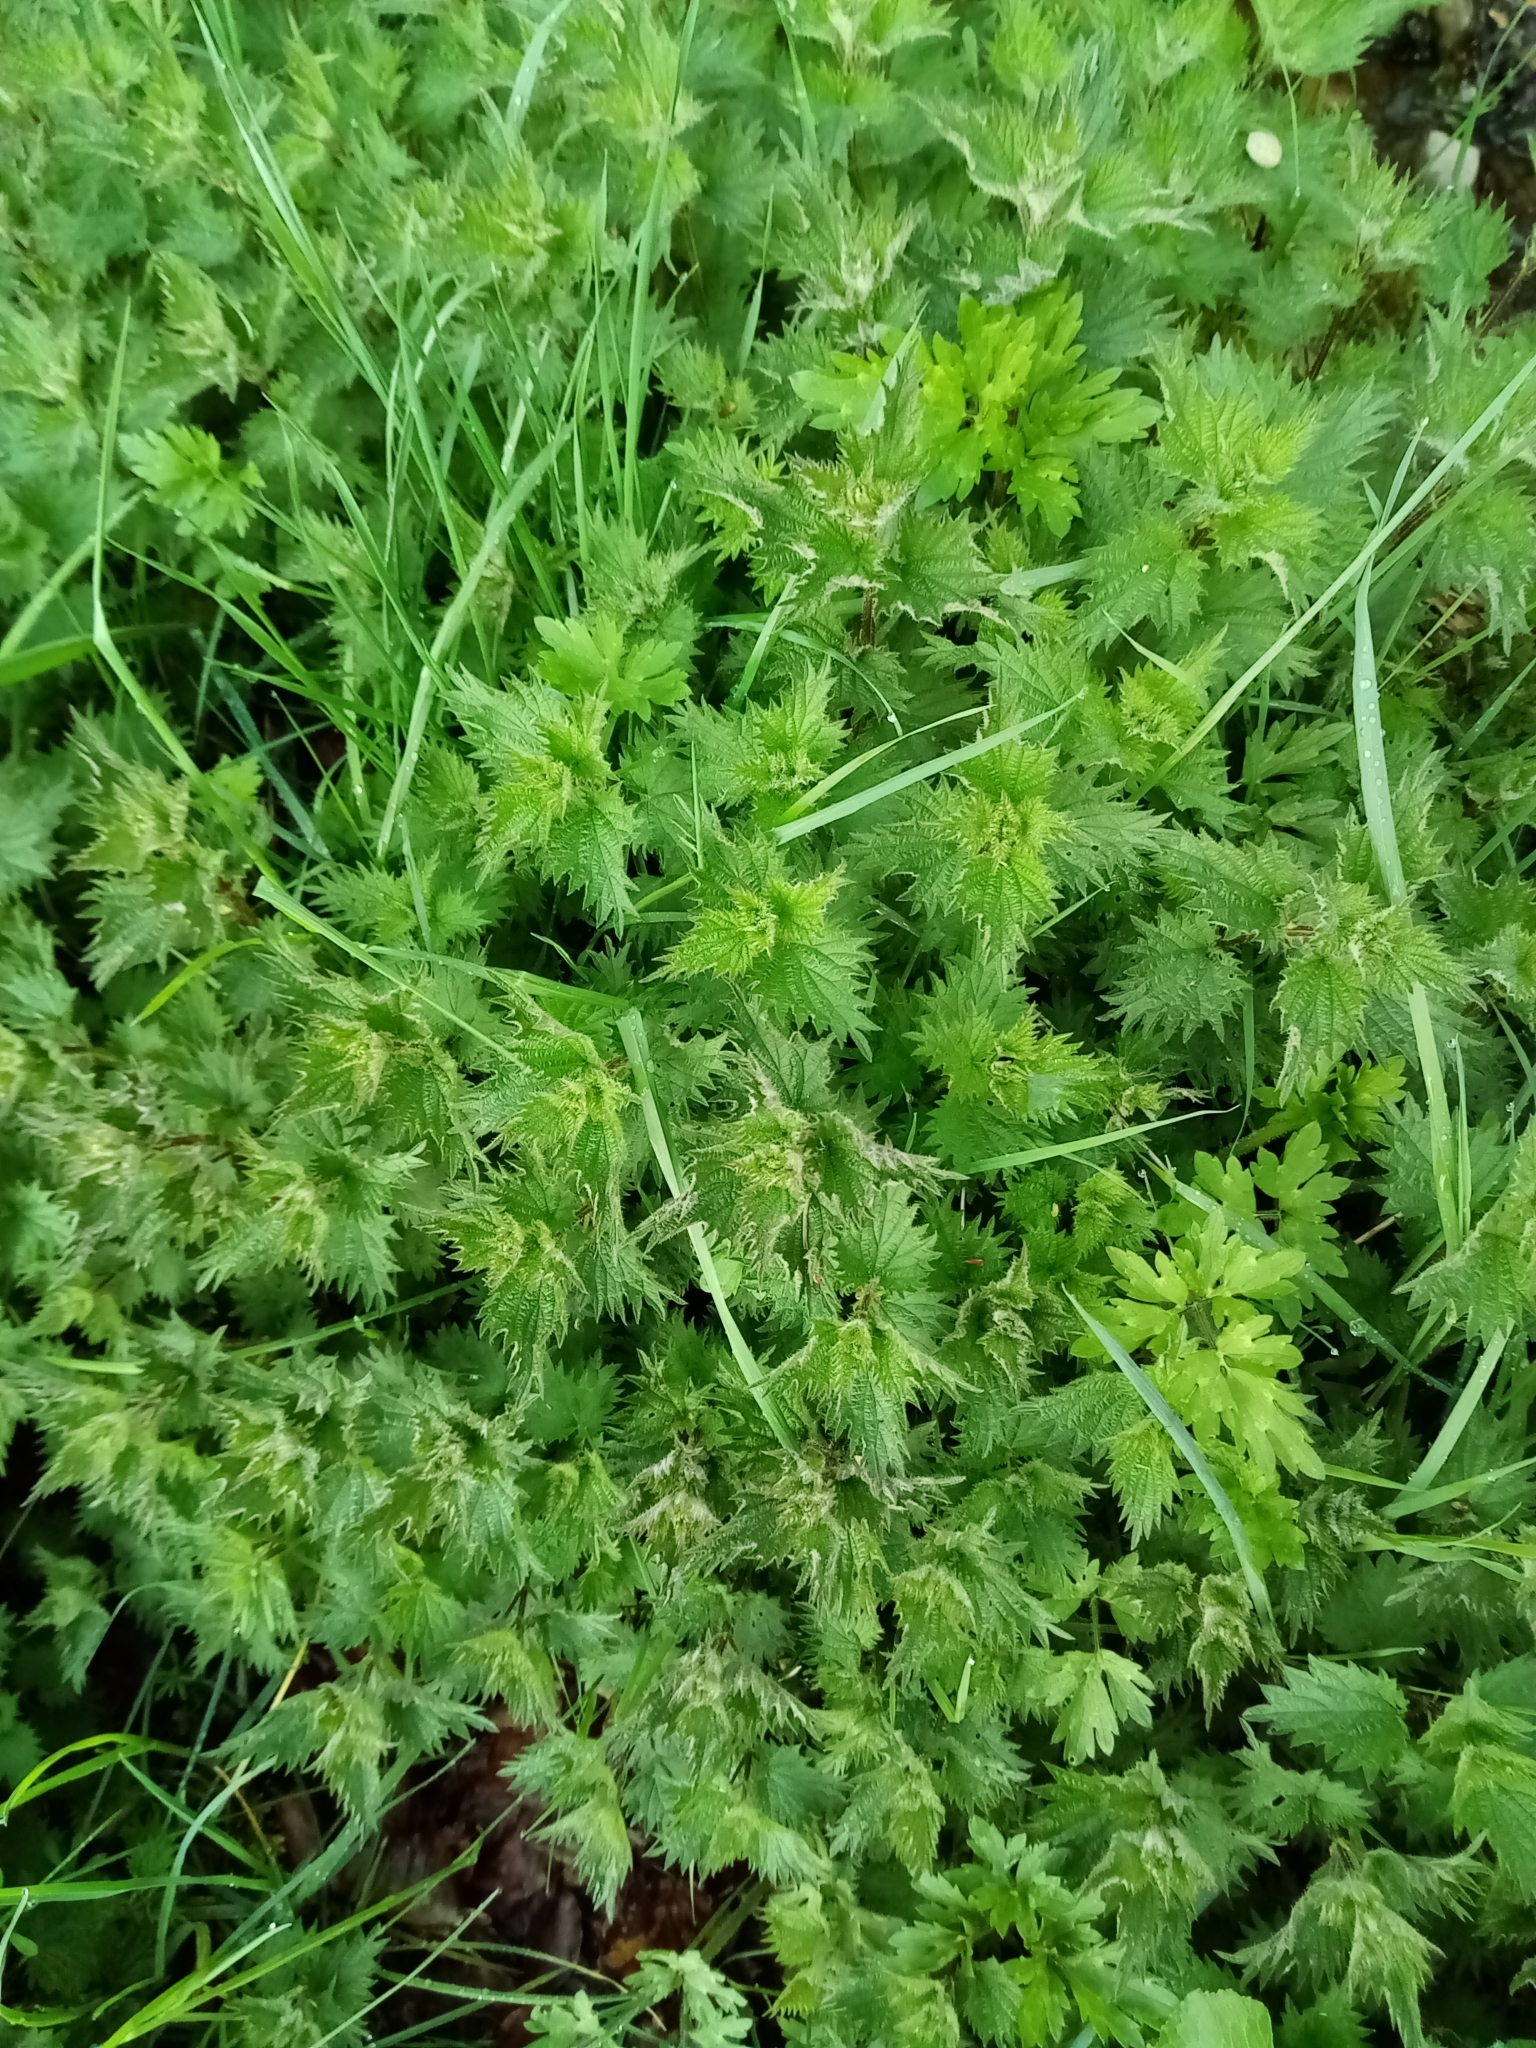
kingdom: Plantae
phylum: Tracheophyta
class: Magnoliopsida
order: Rosales
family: Urticaceae
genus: Urtica
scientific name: Urtica dioica
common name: Common nettle
